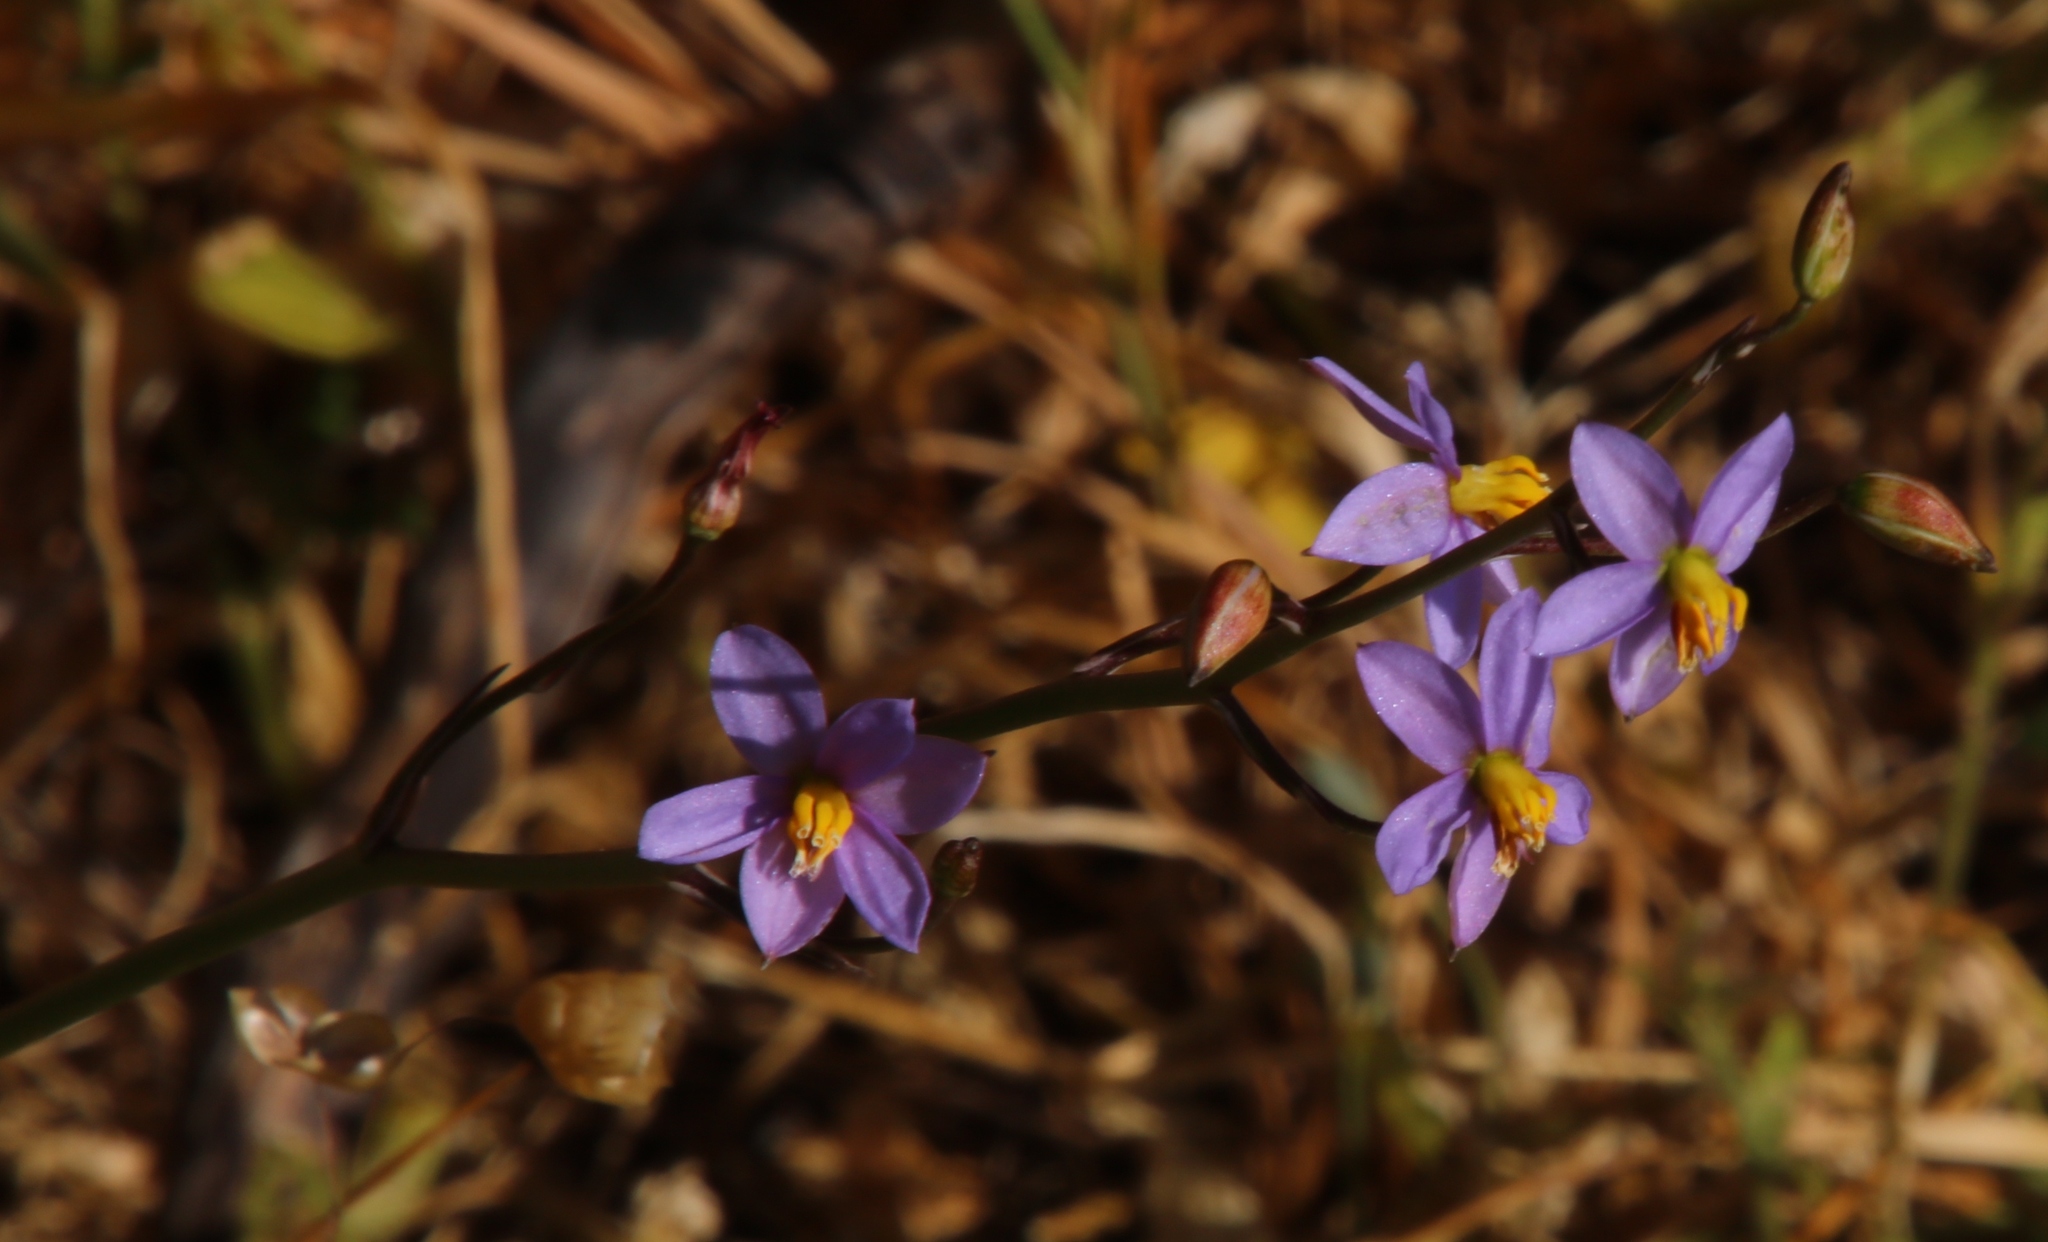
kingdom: Plantae
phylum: Tracheophyta
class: Liliopsida
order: Asparagales
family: Tecophilaeaceae
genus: Cyanella
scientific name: Cyanella hyacinthoides
